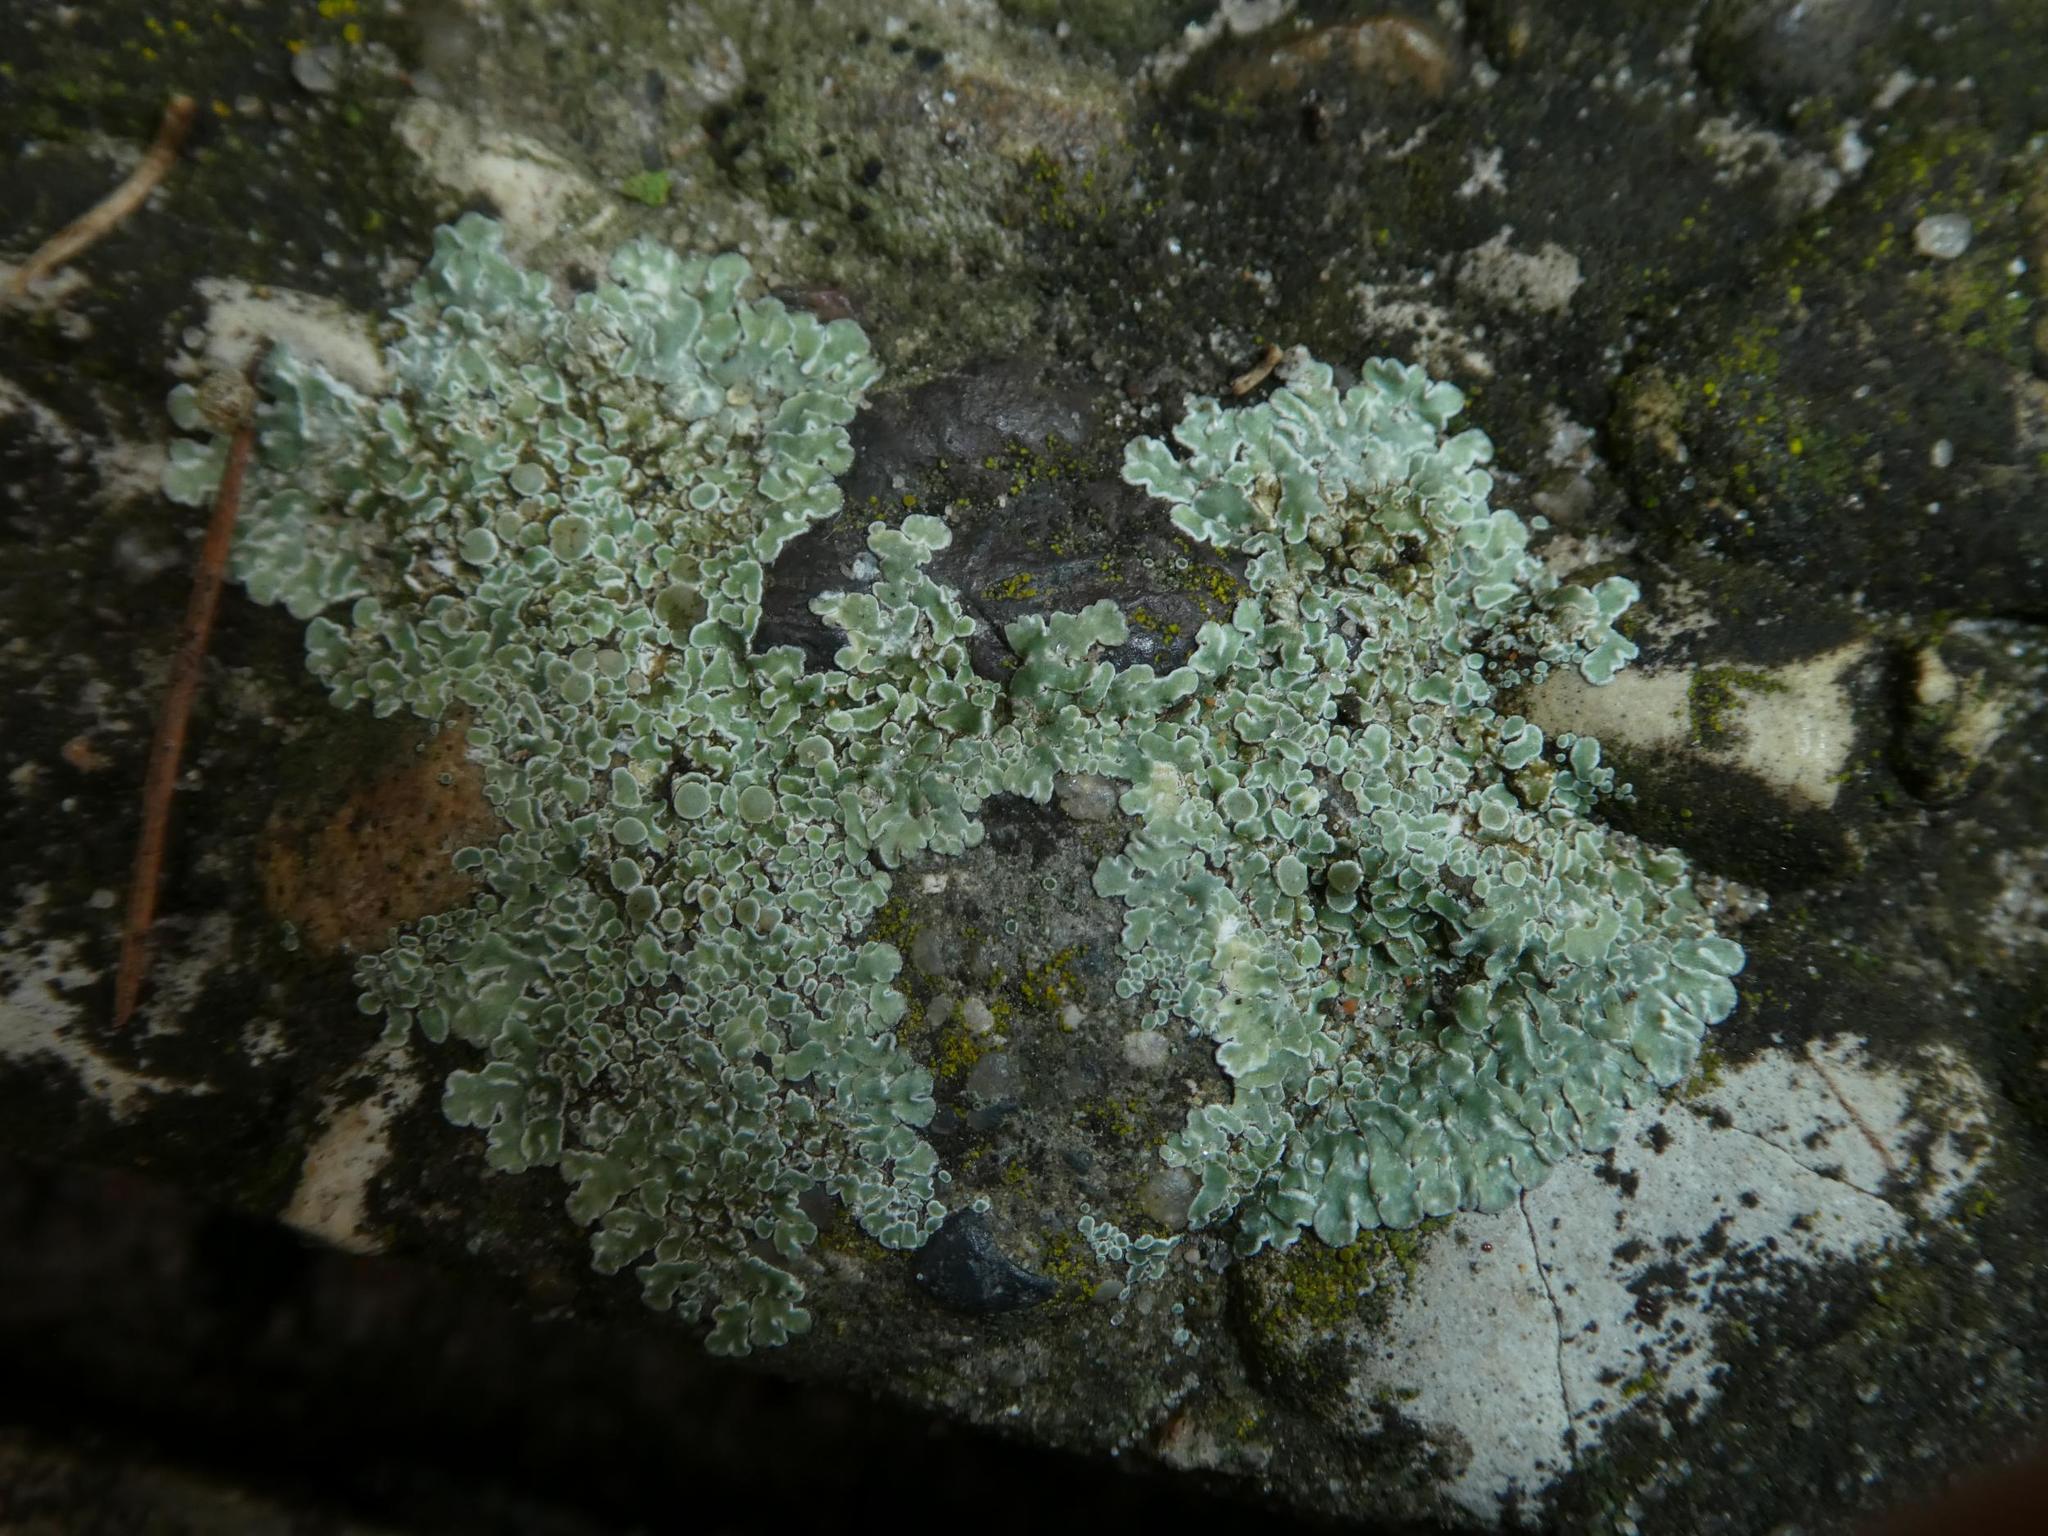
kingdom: Fungi
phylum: Ascomycota
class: Lecanoromycetes
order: Lecanorales
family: Lecanoraceae
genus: Protoparmeliopsis
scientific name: Protoparmeliopsis muralis
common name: Stonewall rim lichen
